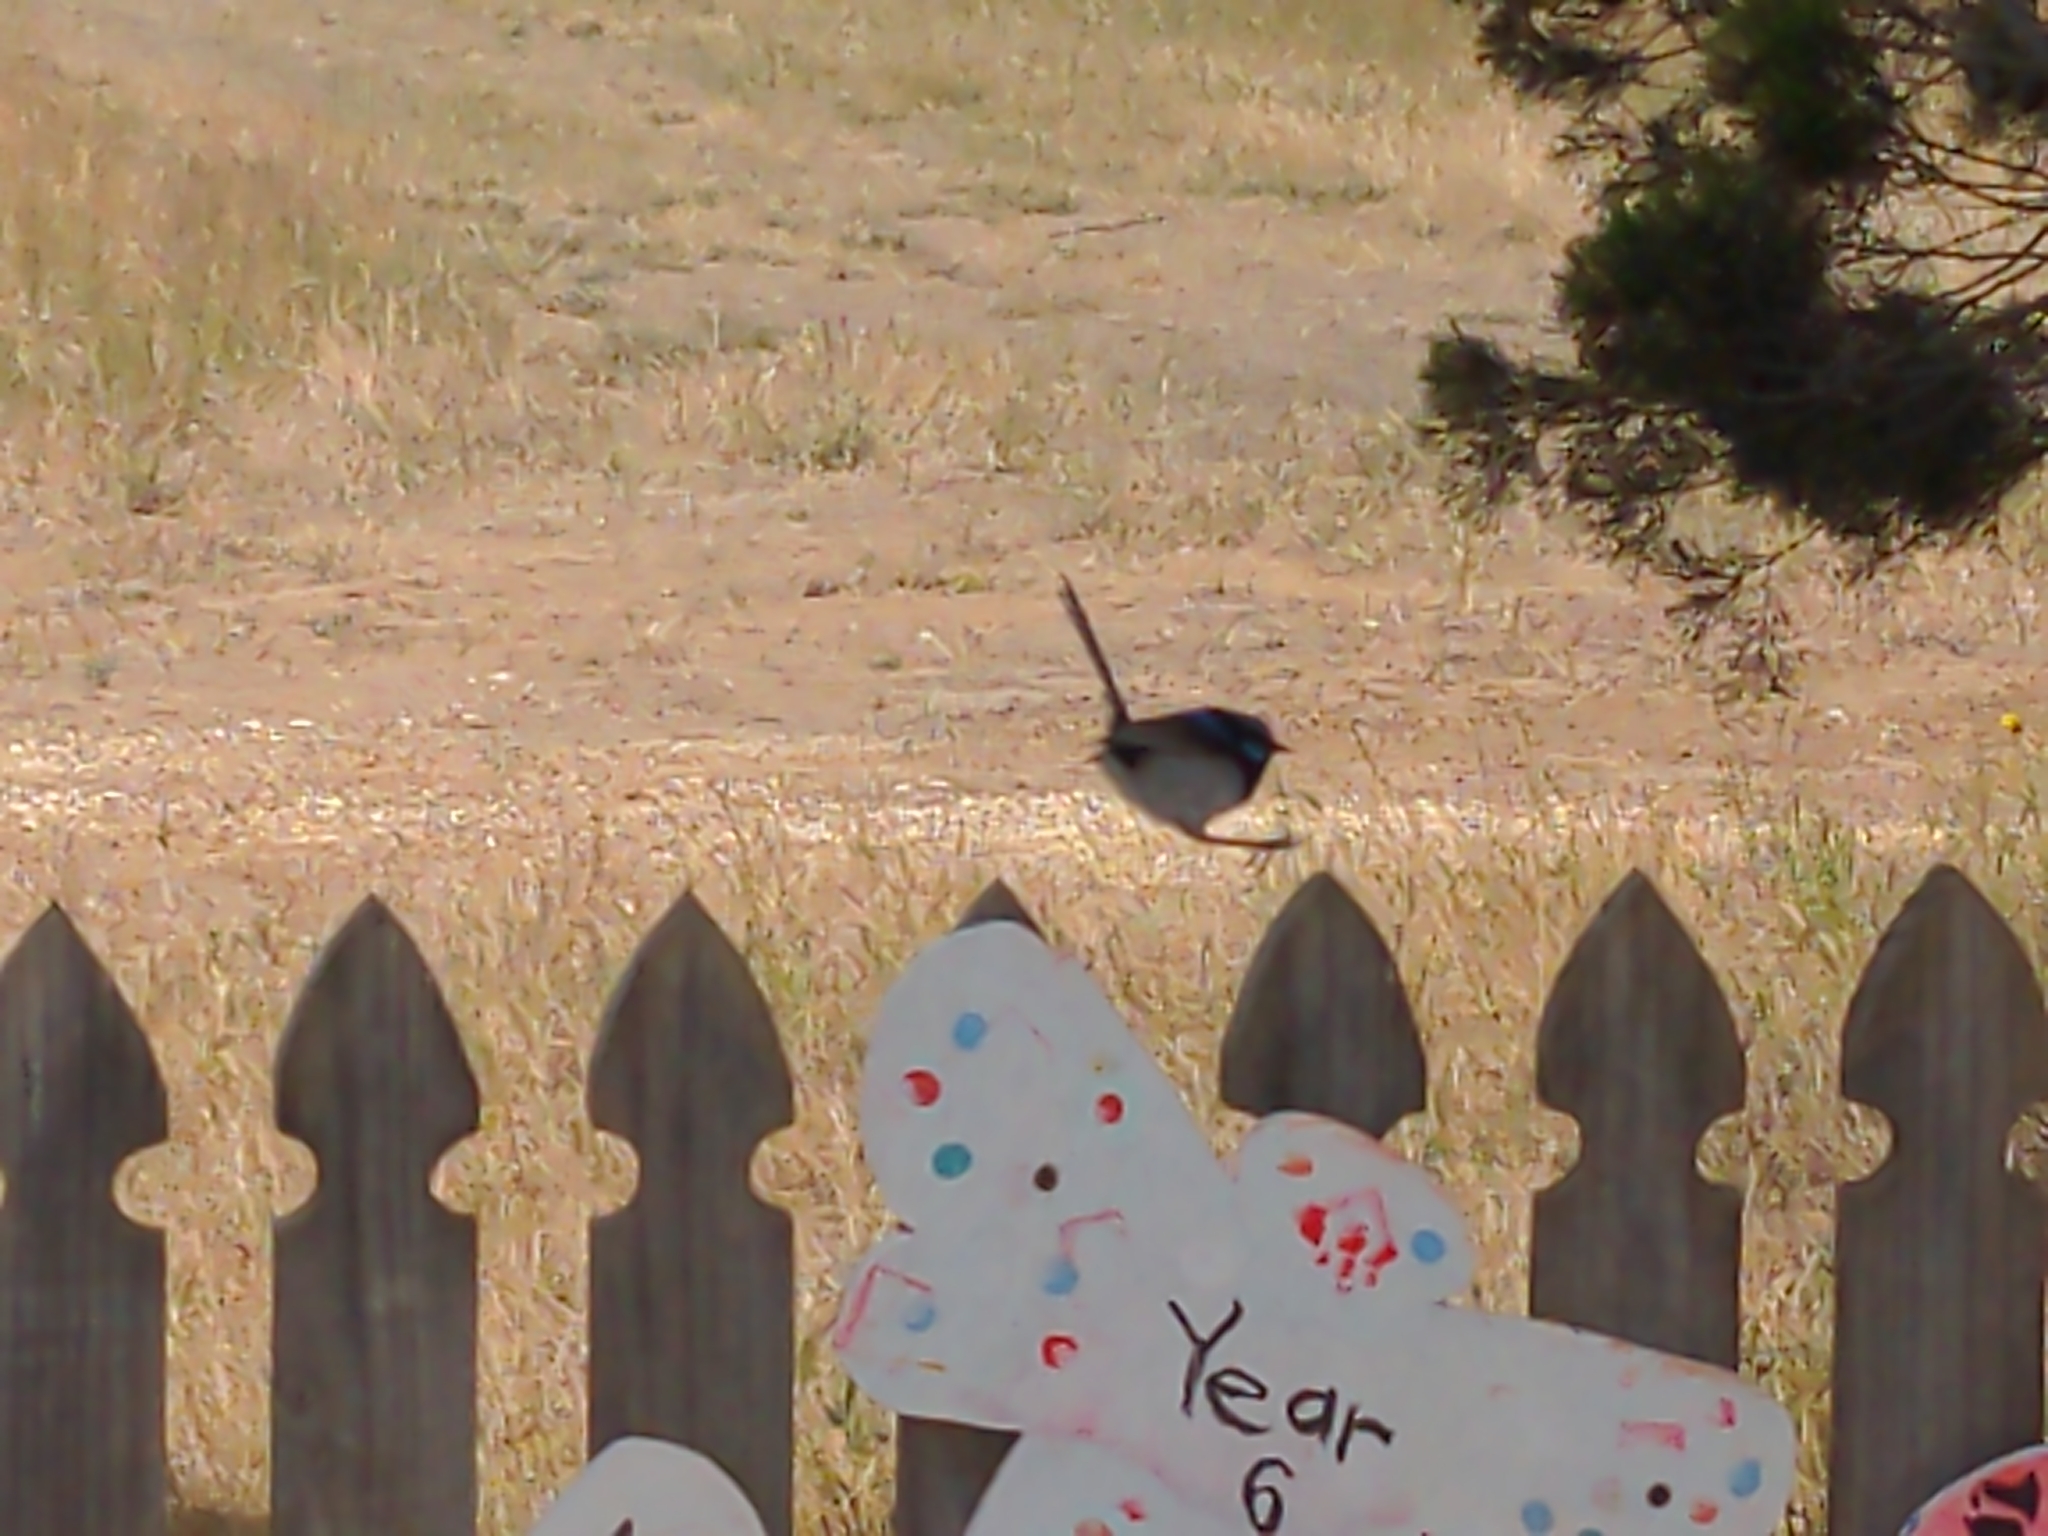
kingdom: Animalia
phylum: Chordata
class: Aves
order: Passeriformes
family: Maluridae
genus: Malurus
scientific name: Malurus cyaneus
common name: Superb fairywren
